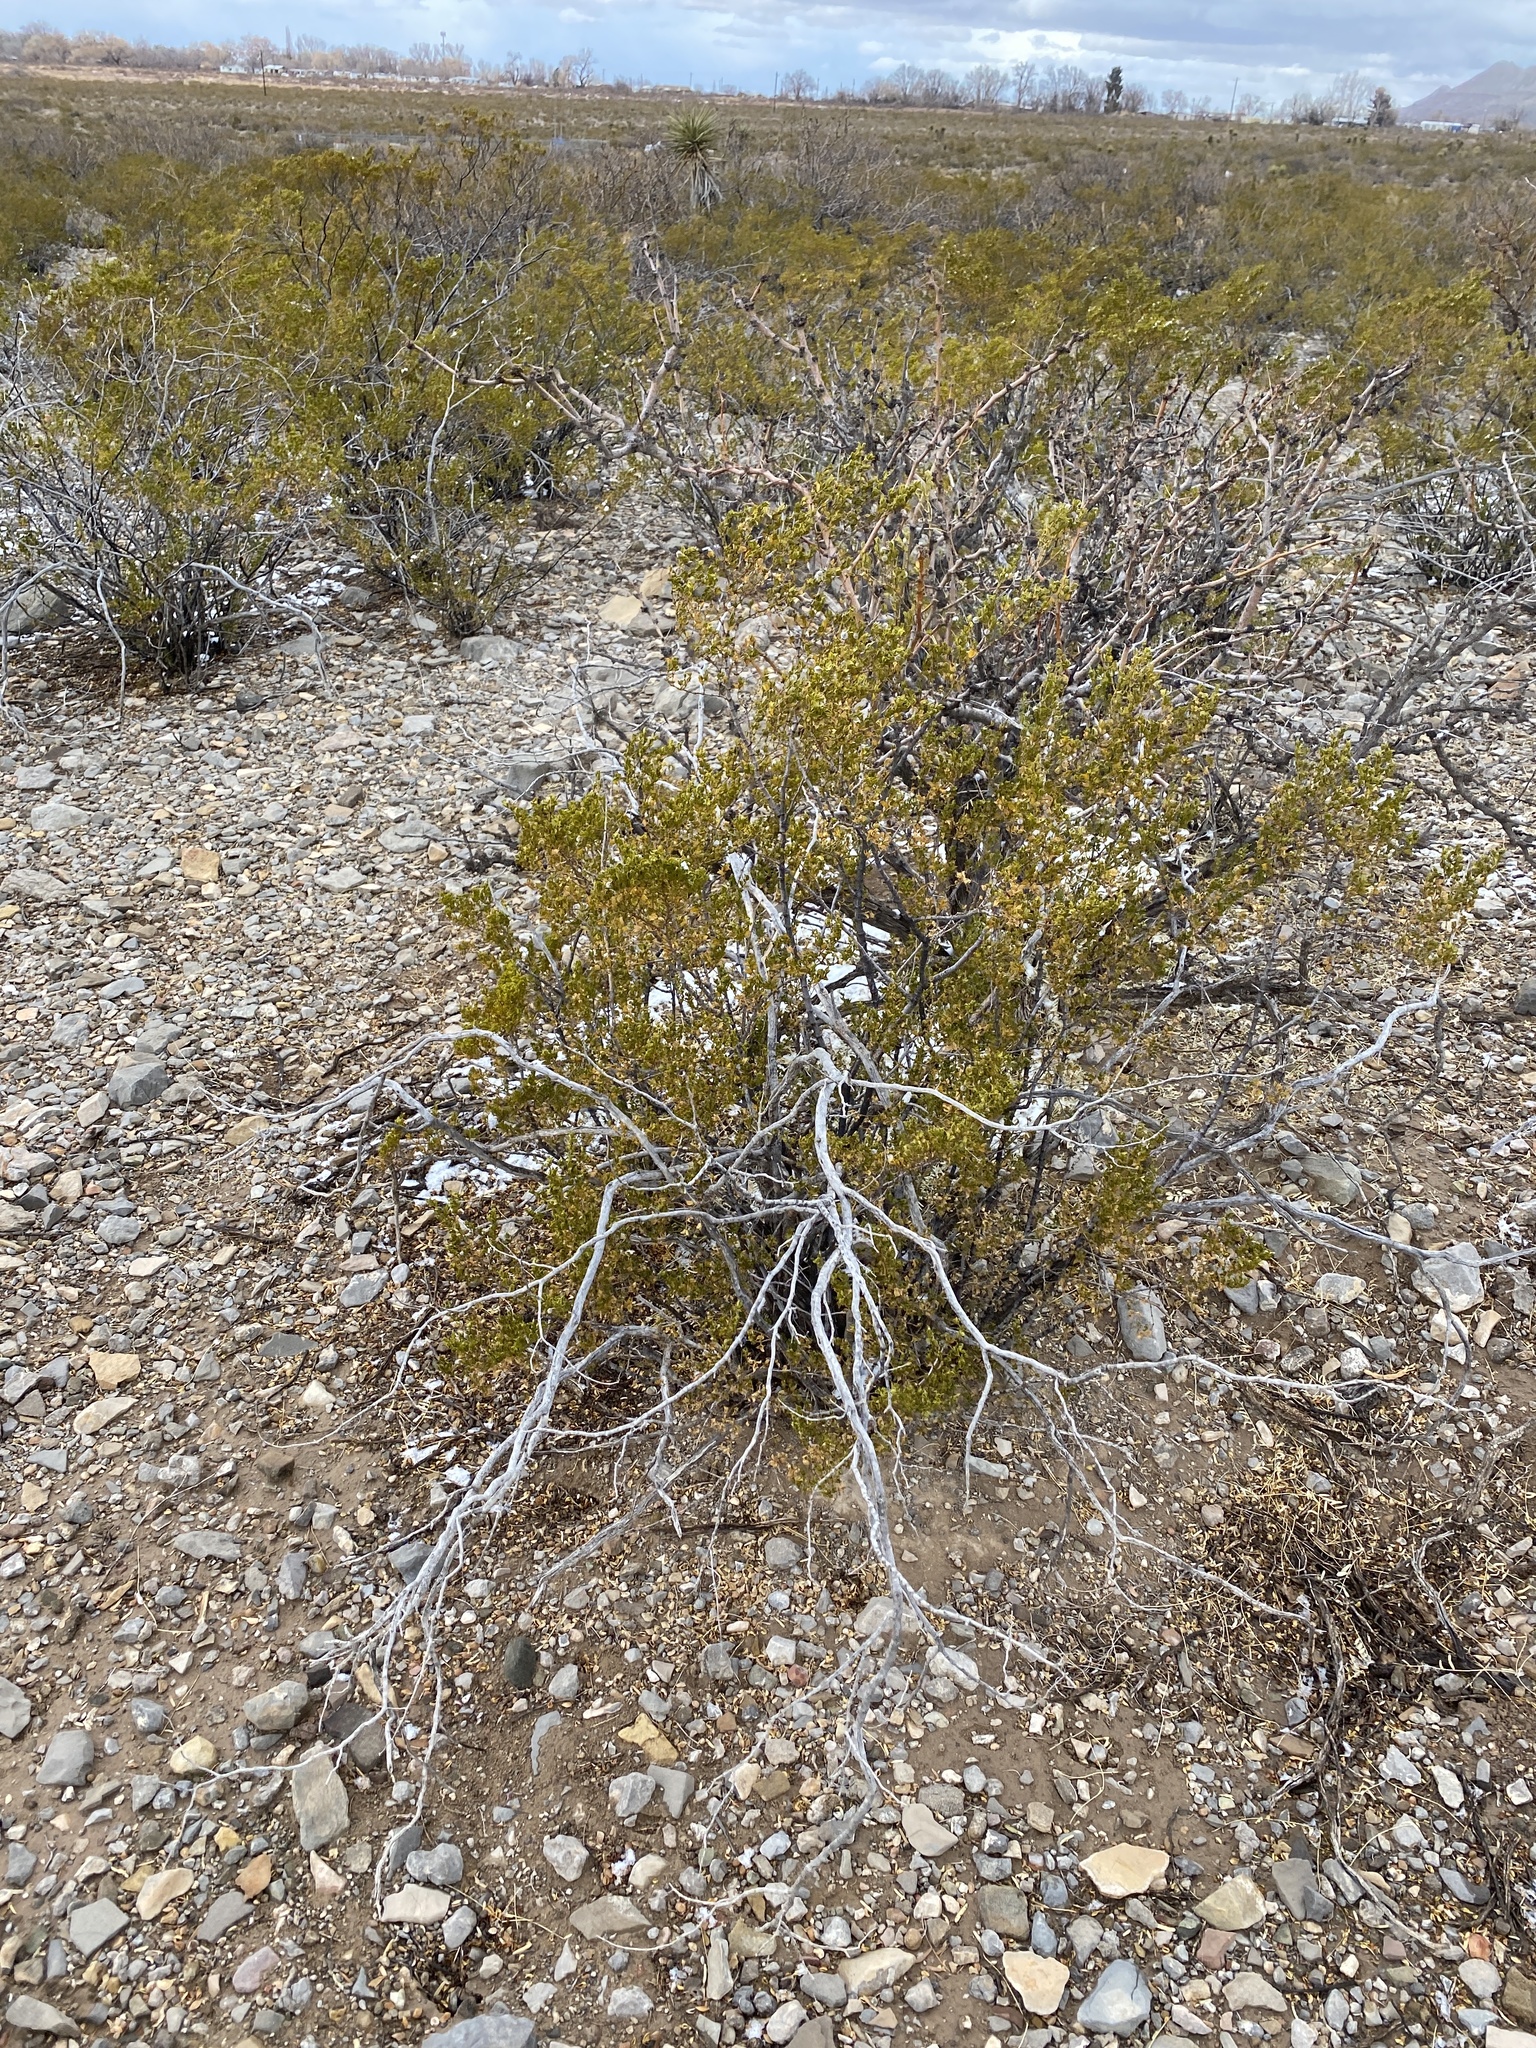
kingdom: Plantae
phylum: Tracheophyta
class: Magnoliopsida
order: Zygophyllales
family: Zygophyllaceae
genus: Larrea
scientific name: Larrea tridentata
